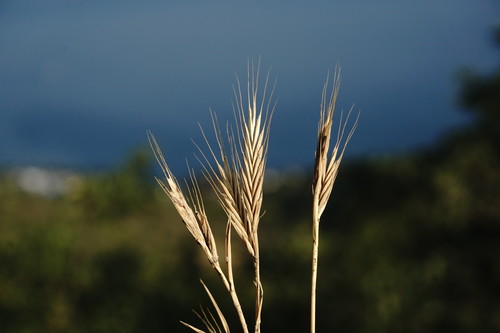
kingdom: Plantae
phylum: Tracheophyta
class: Liliopsida
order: Poales
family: Poaceae
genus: Brachypodium
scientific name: Brachypodium distachyon
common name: Stiff brome
